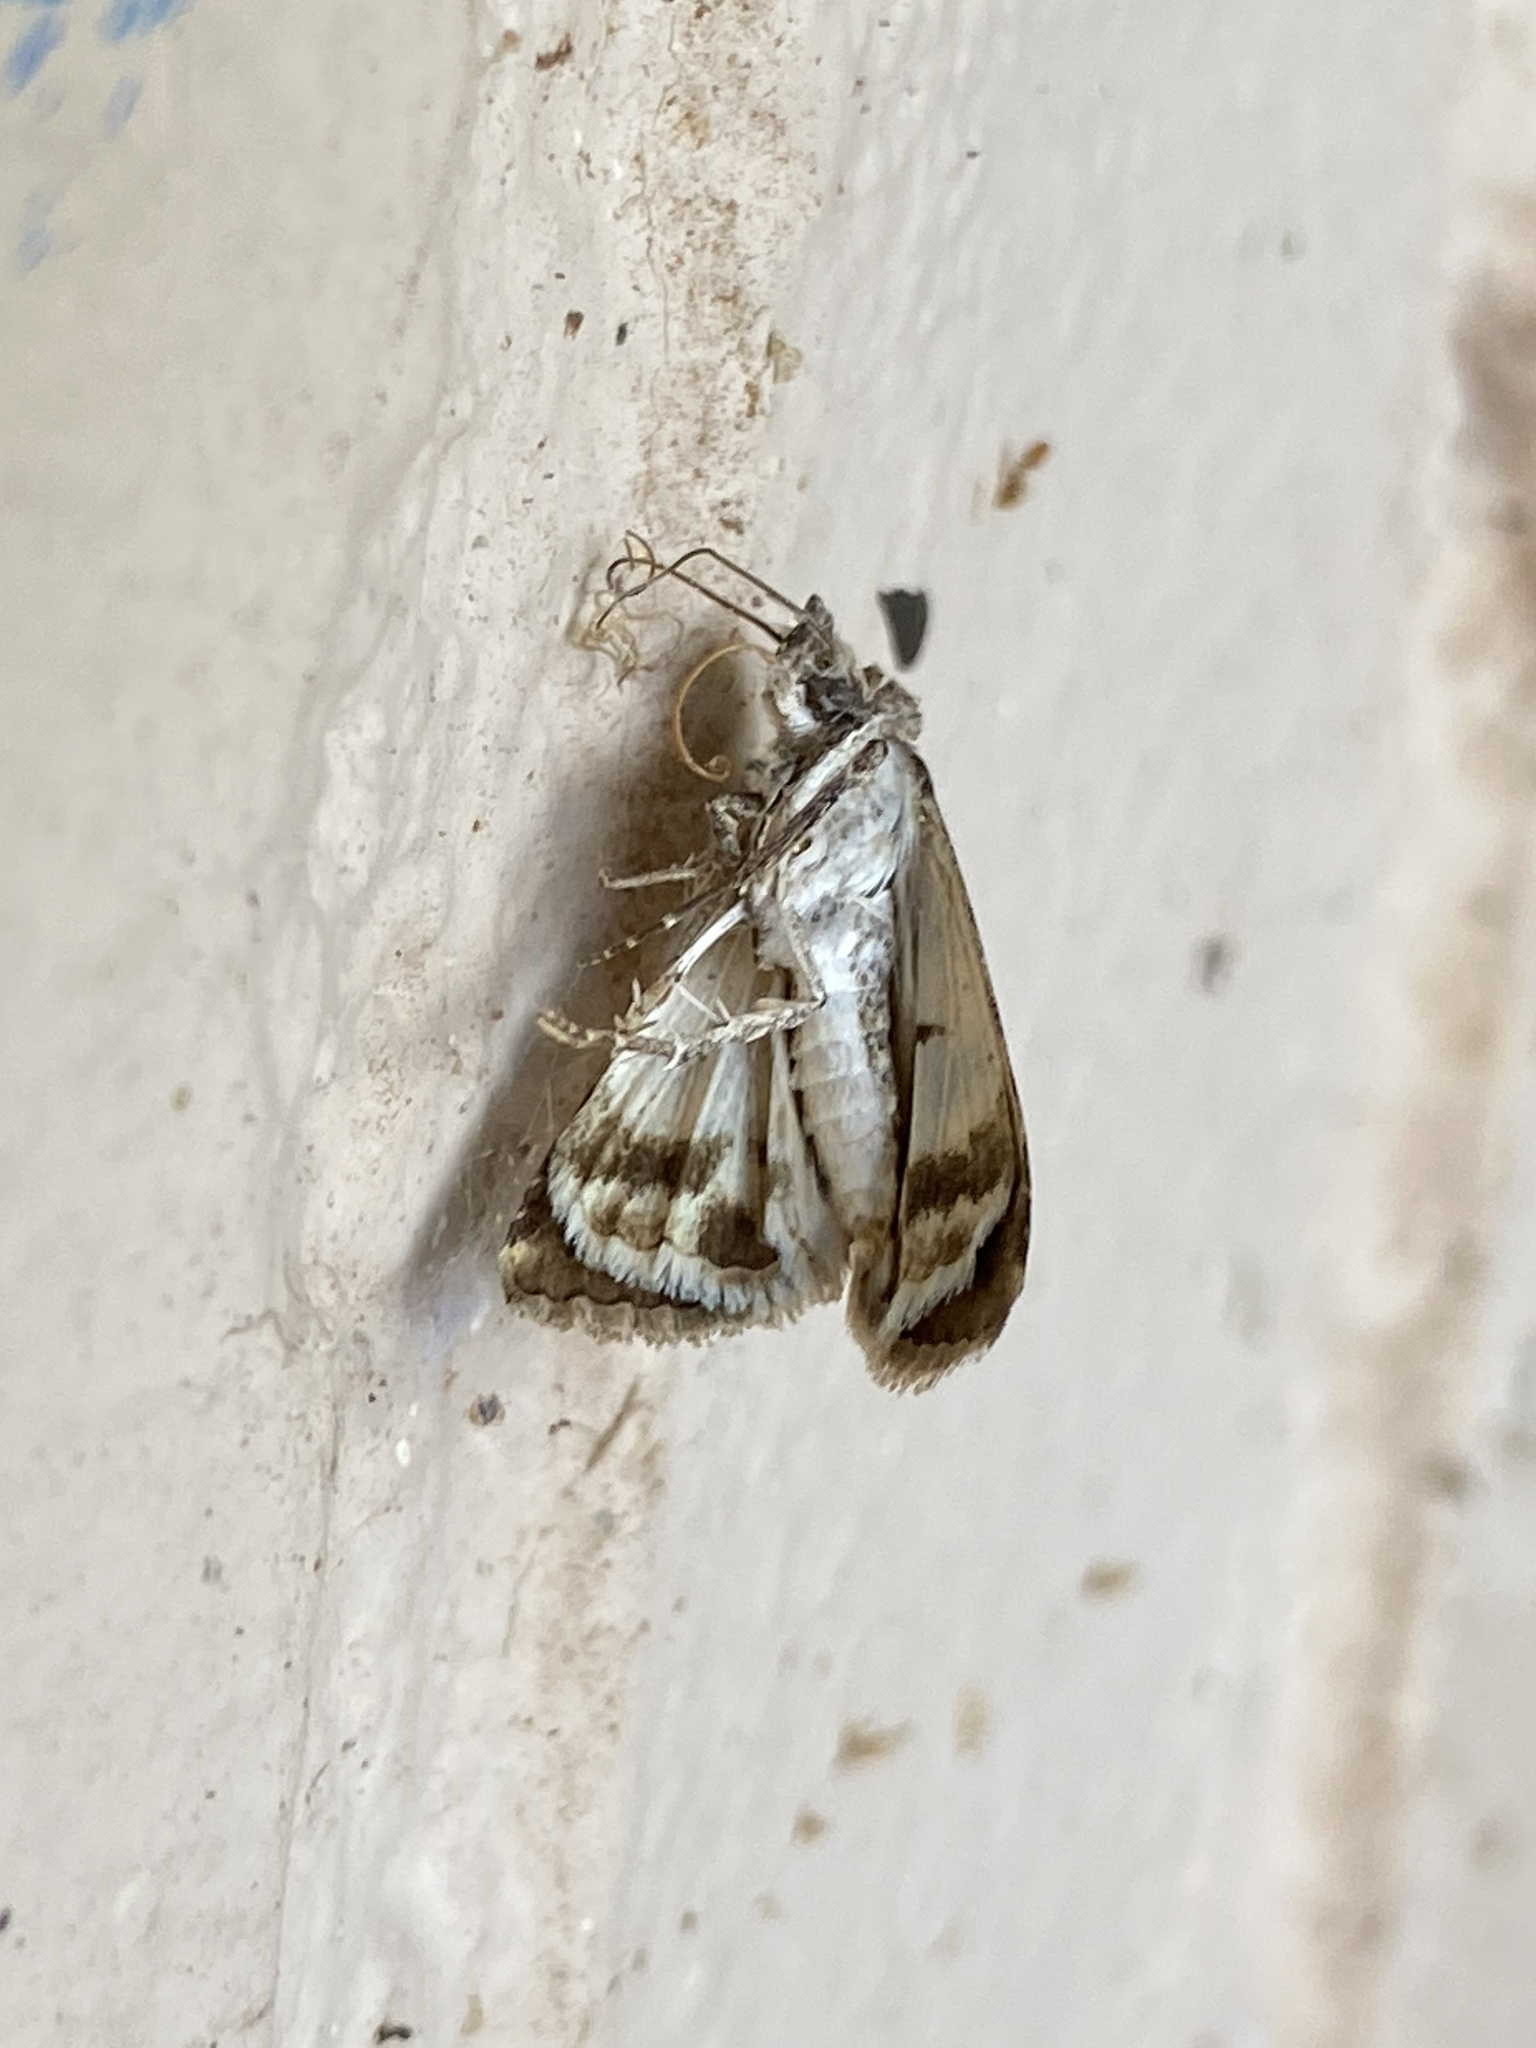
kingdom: Animalia
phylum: Arthropoda
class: Insecta
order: Lepidoptera
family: Erebidae
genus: Bulia
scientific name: Bulia deducta
